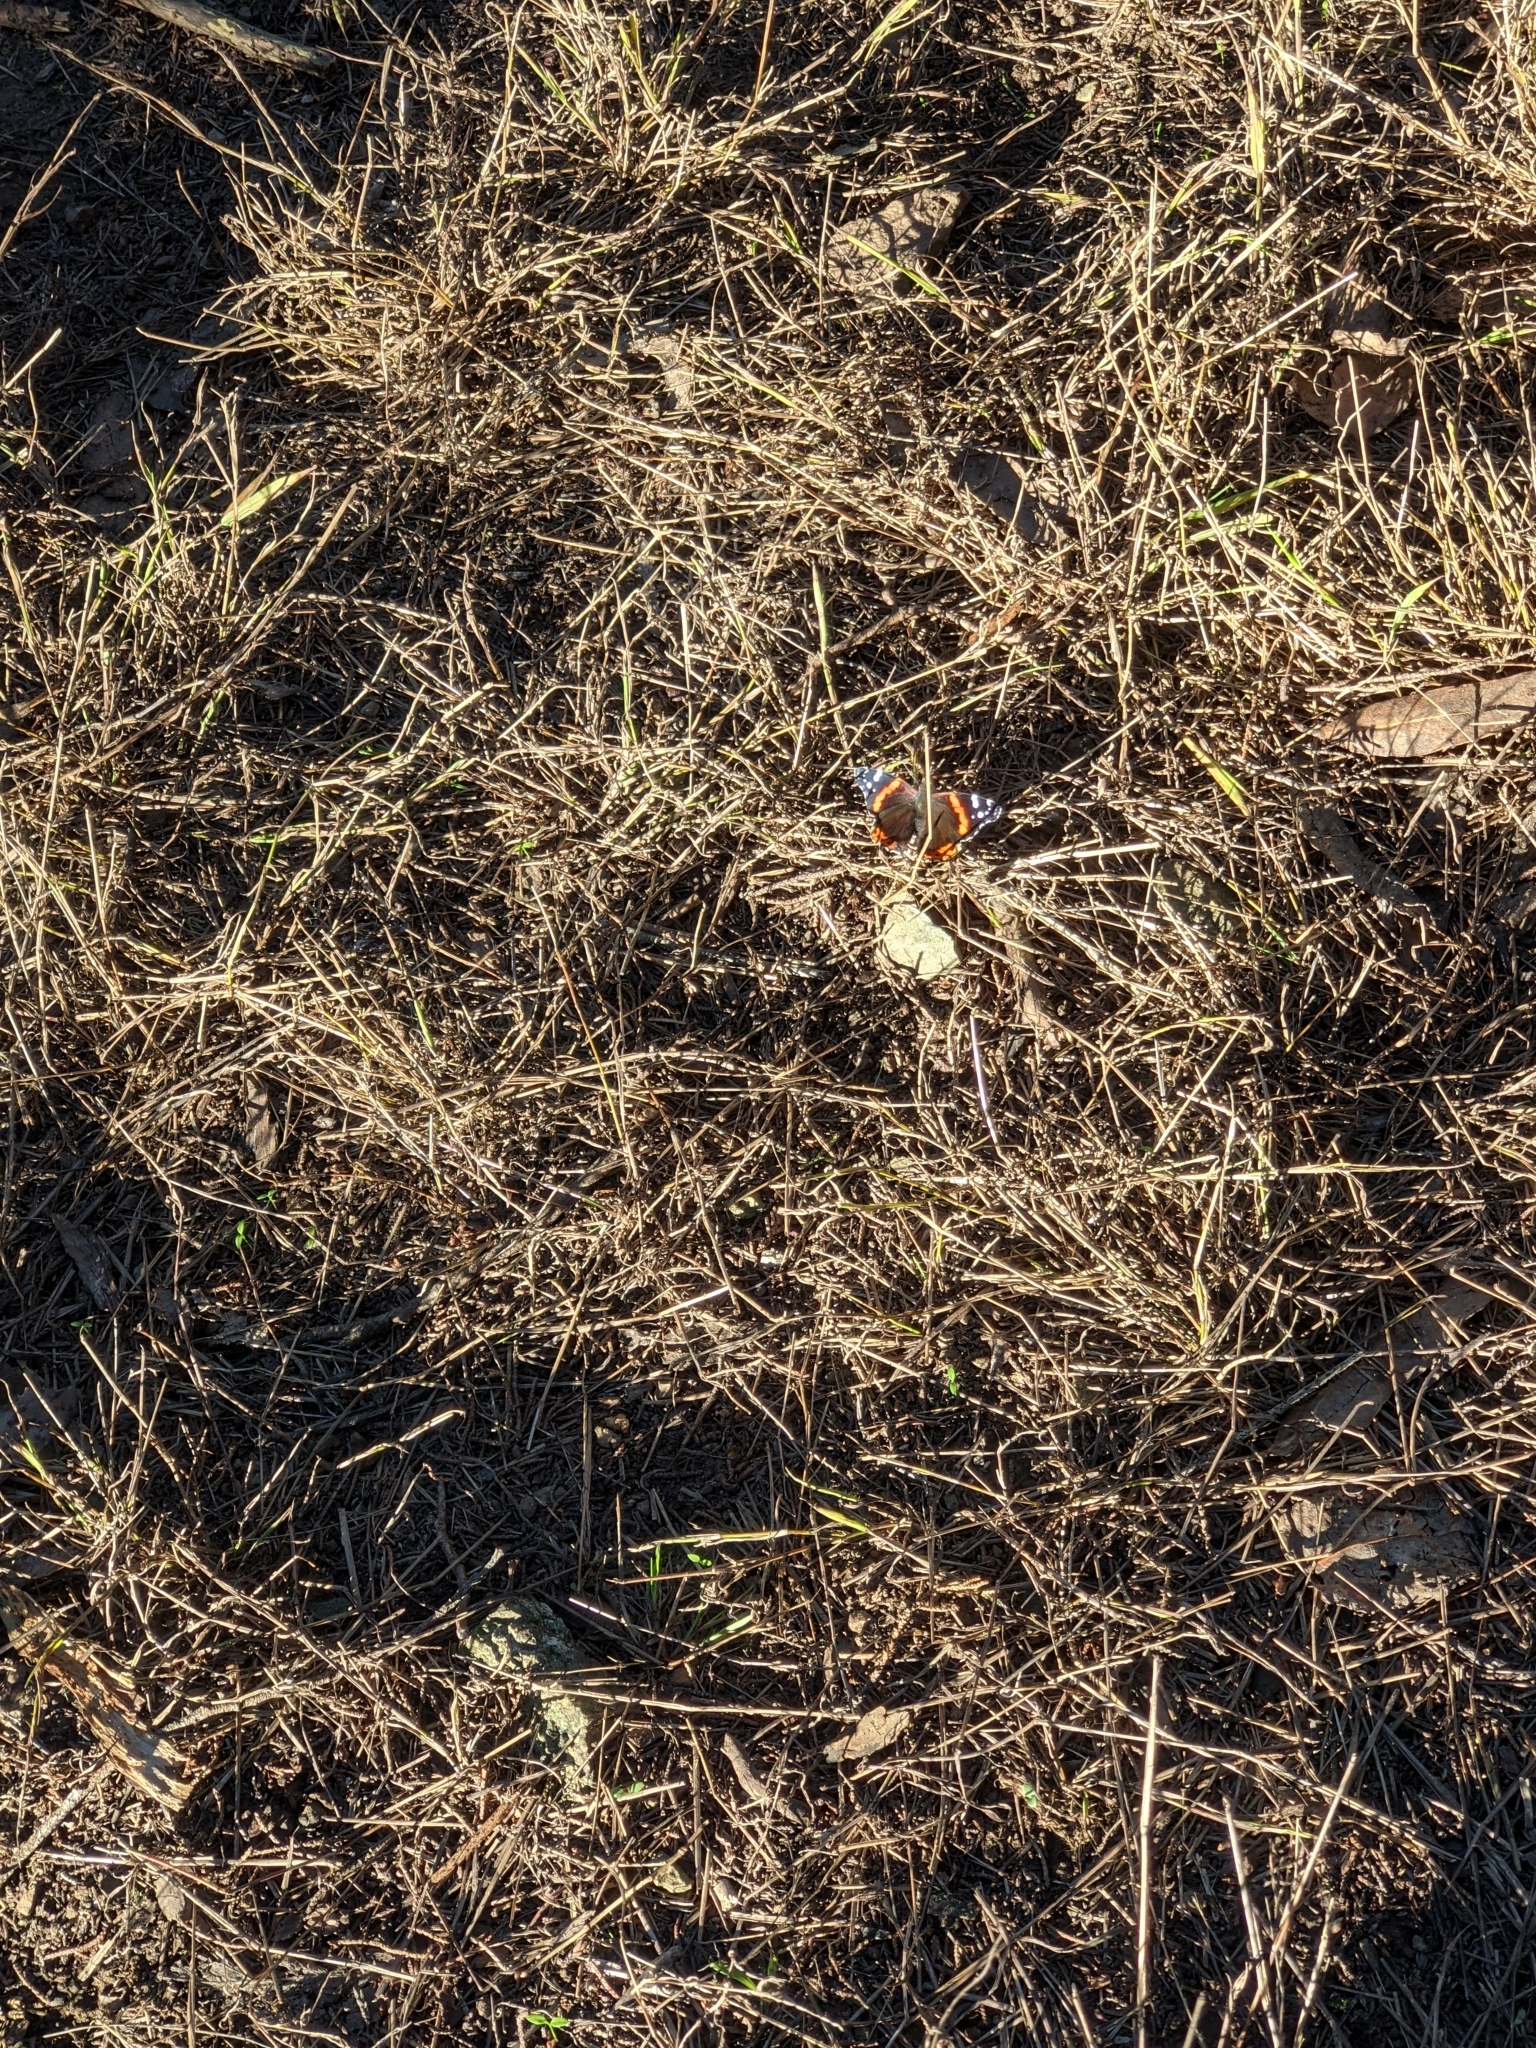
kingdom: Animalia
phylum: Arthropoda
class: Insecta
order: Lepidoptera
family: Nymphalidae
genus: Vanessa
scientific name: Vanessa atalanta
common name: Red admiral
